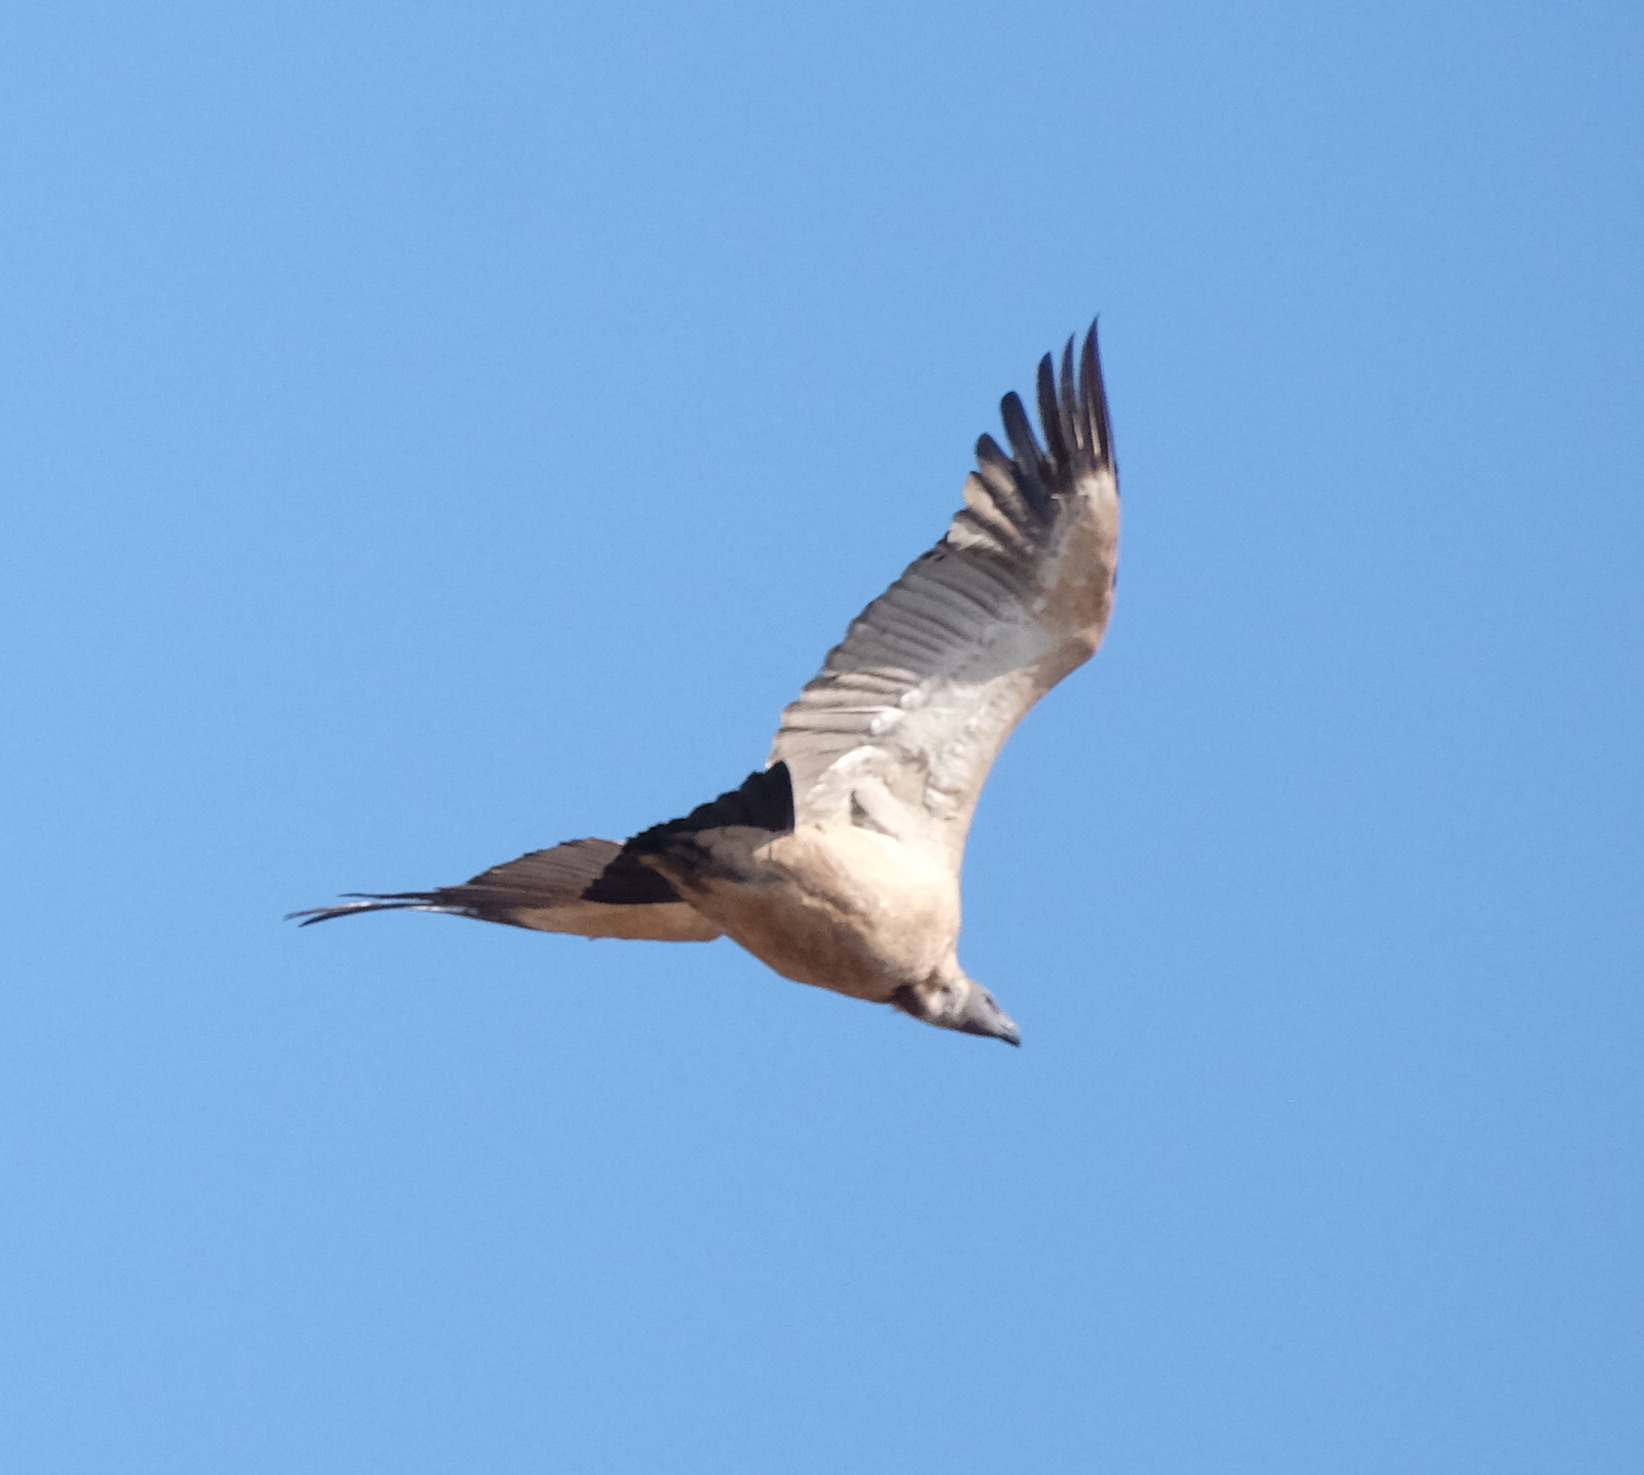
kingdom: Animalia
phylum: Chordata
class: Aves
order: Accipitriformes
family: Accipitridae
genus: Gyps
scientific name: Gyps coprotheres
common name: Cape vulture
